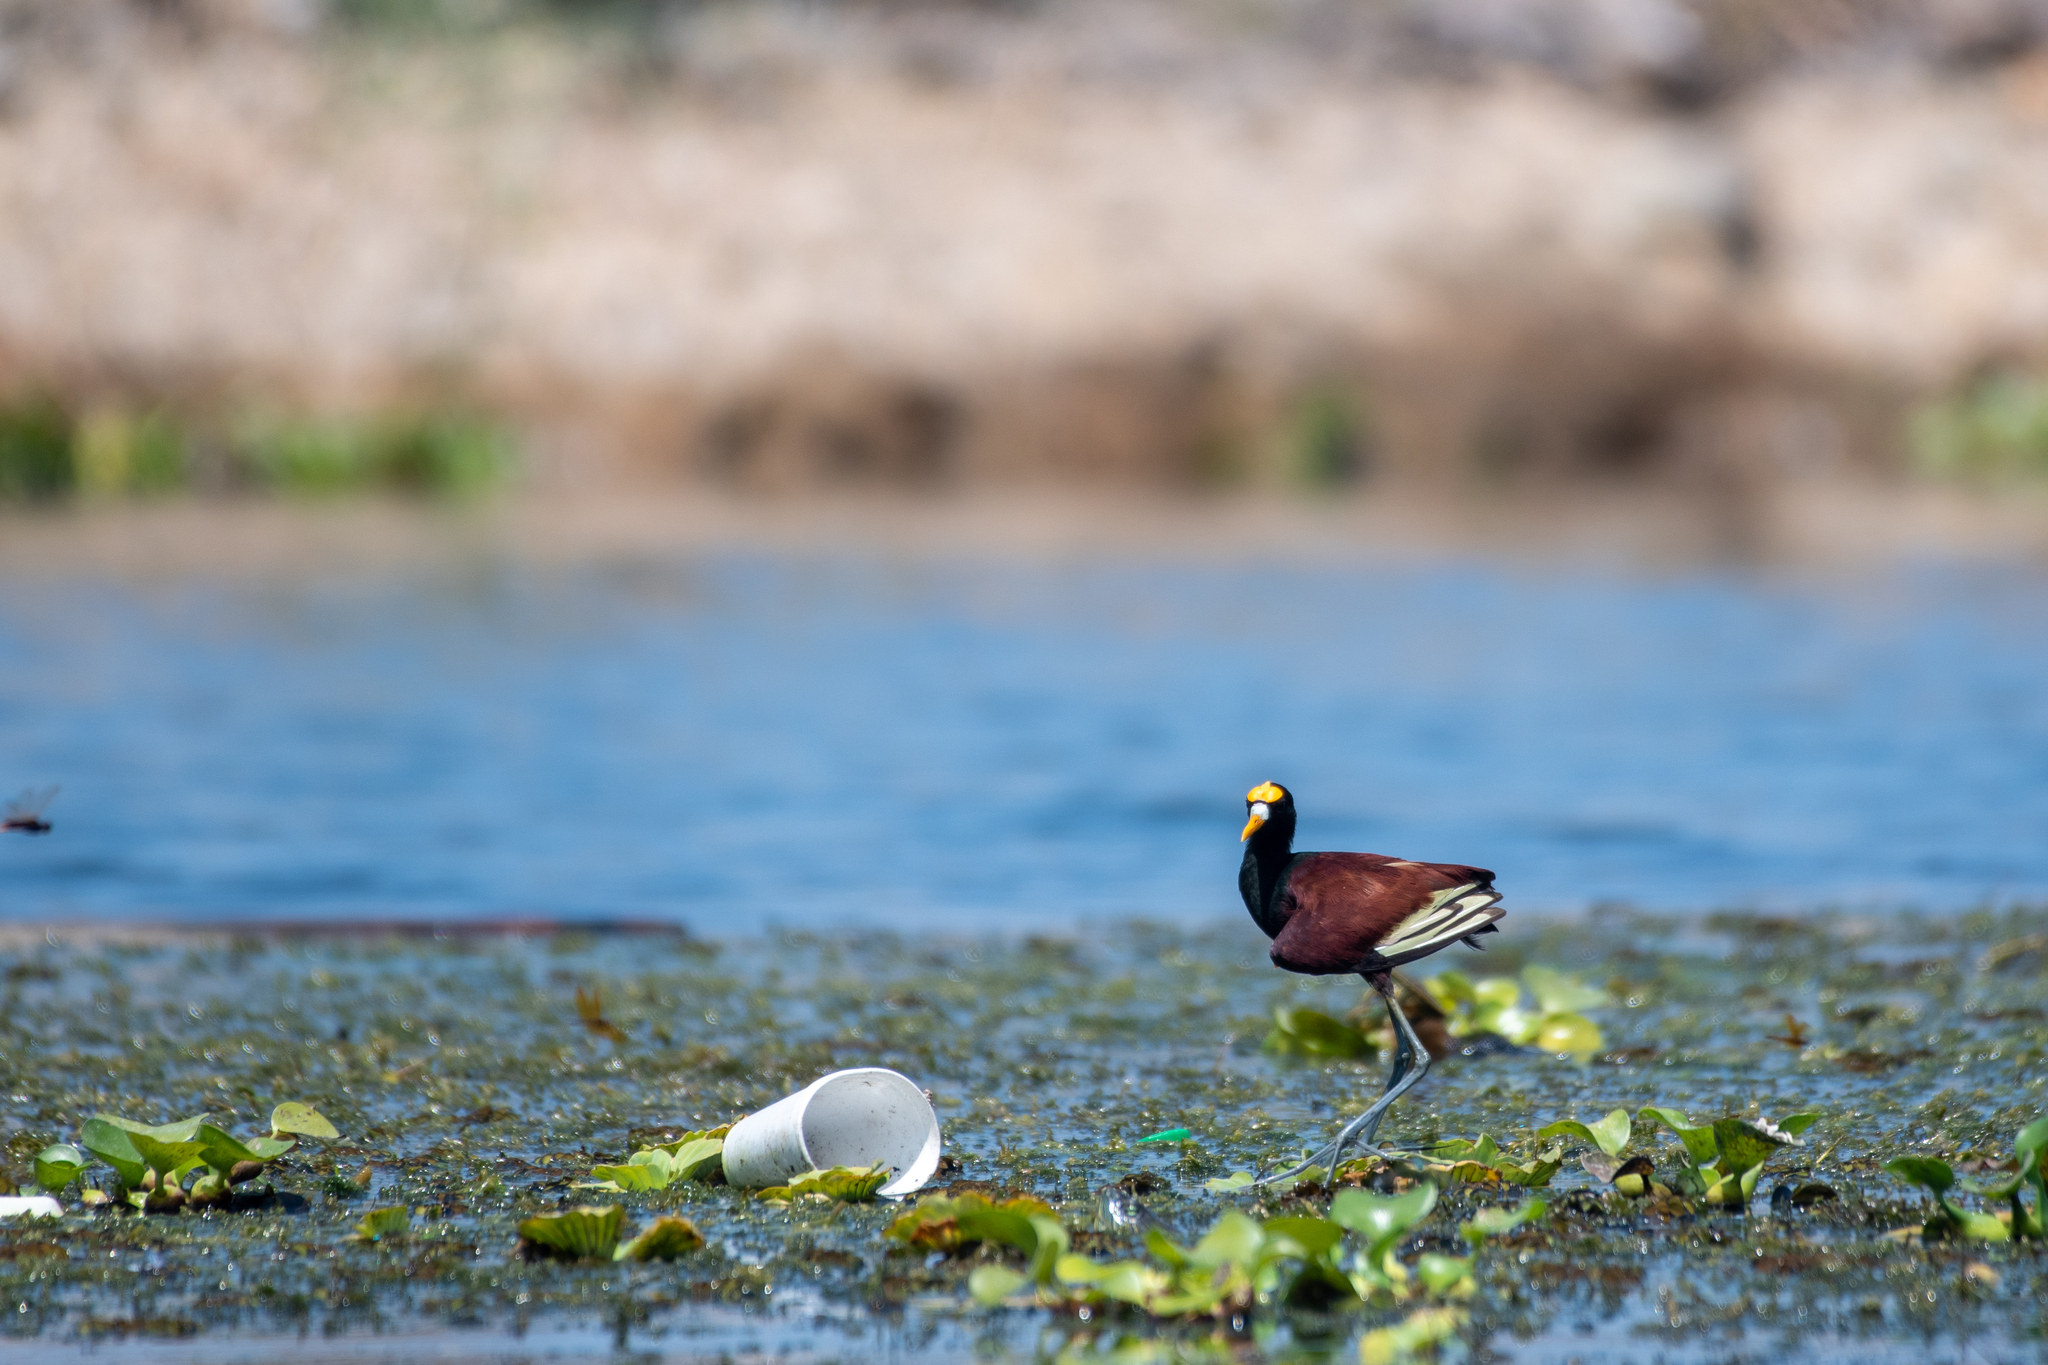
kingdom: Animalia
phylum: Chordata
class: Aves
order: Charadriiformes
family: Jacanidae
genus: Jacana
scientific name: Jacana spinosa
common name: Northern jacana
